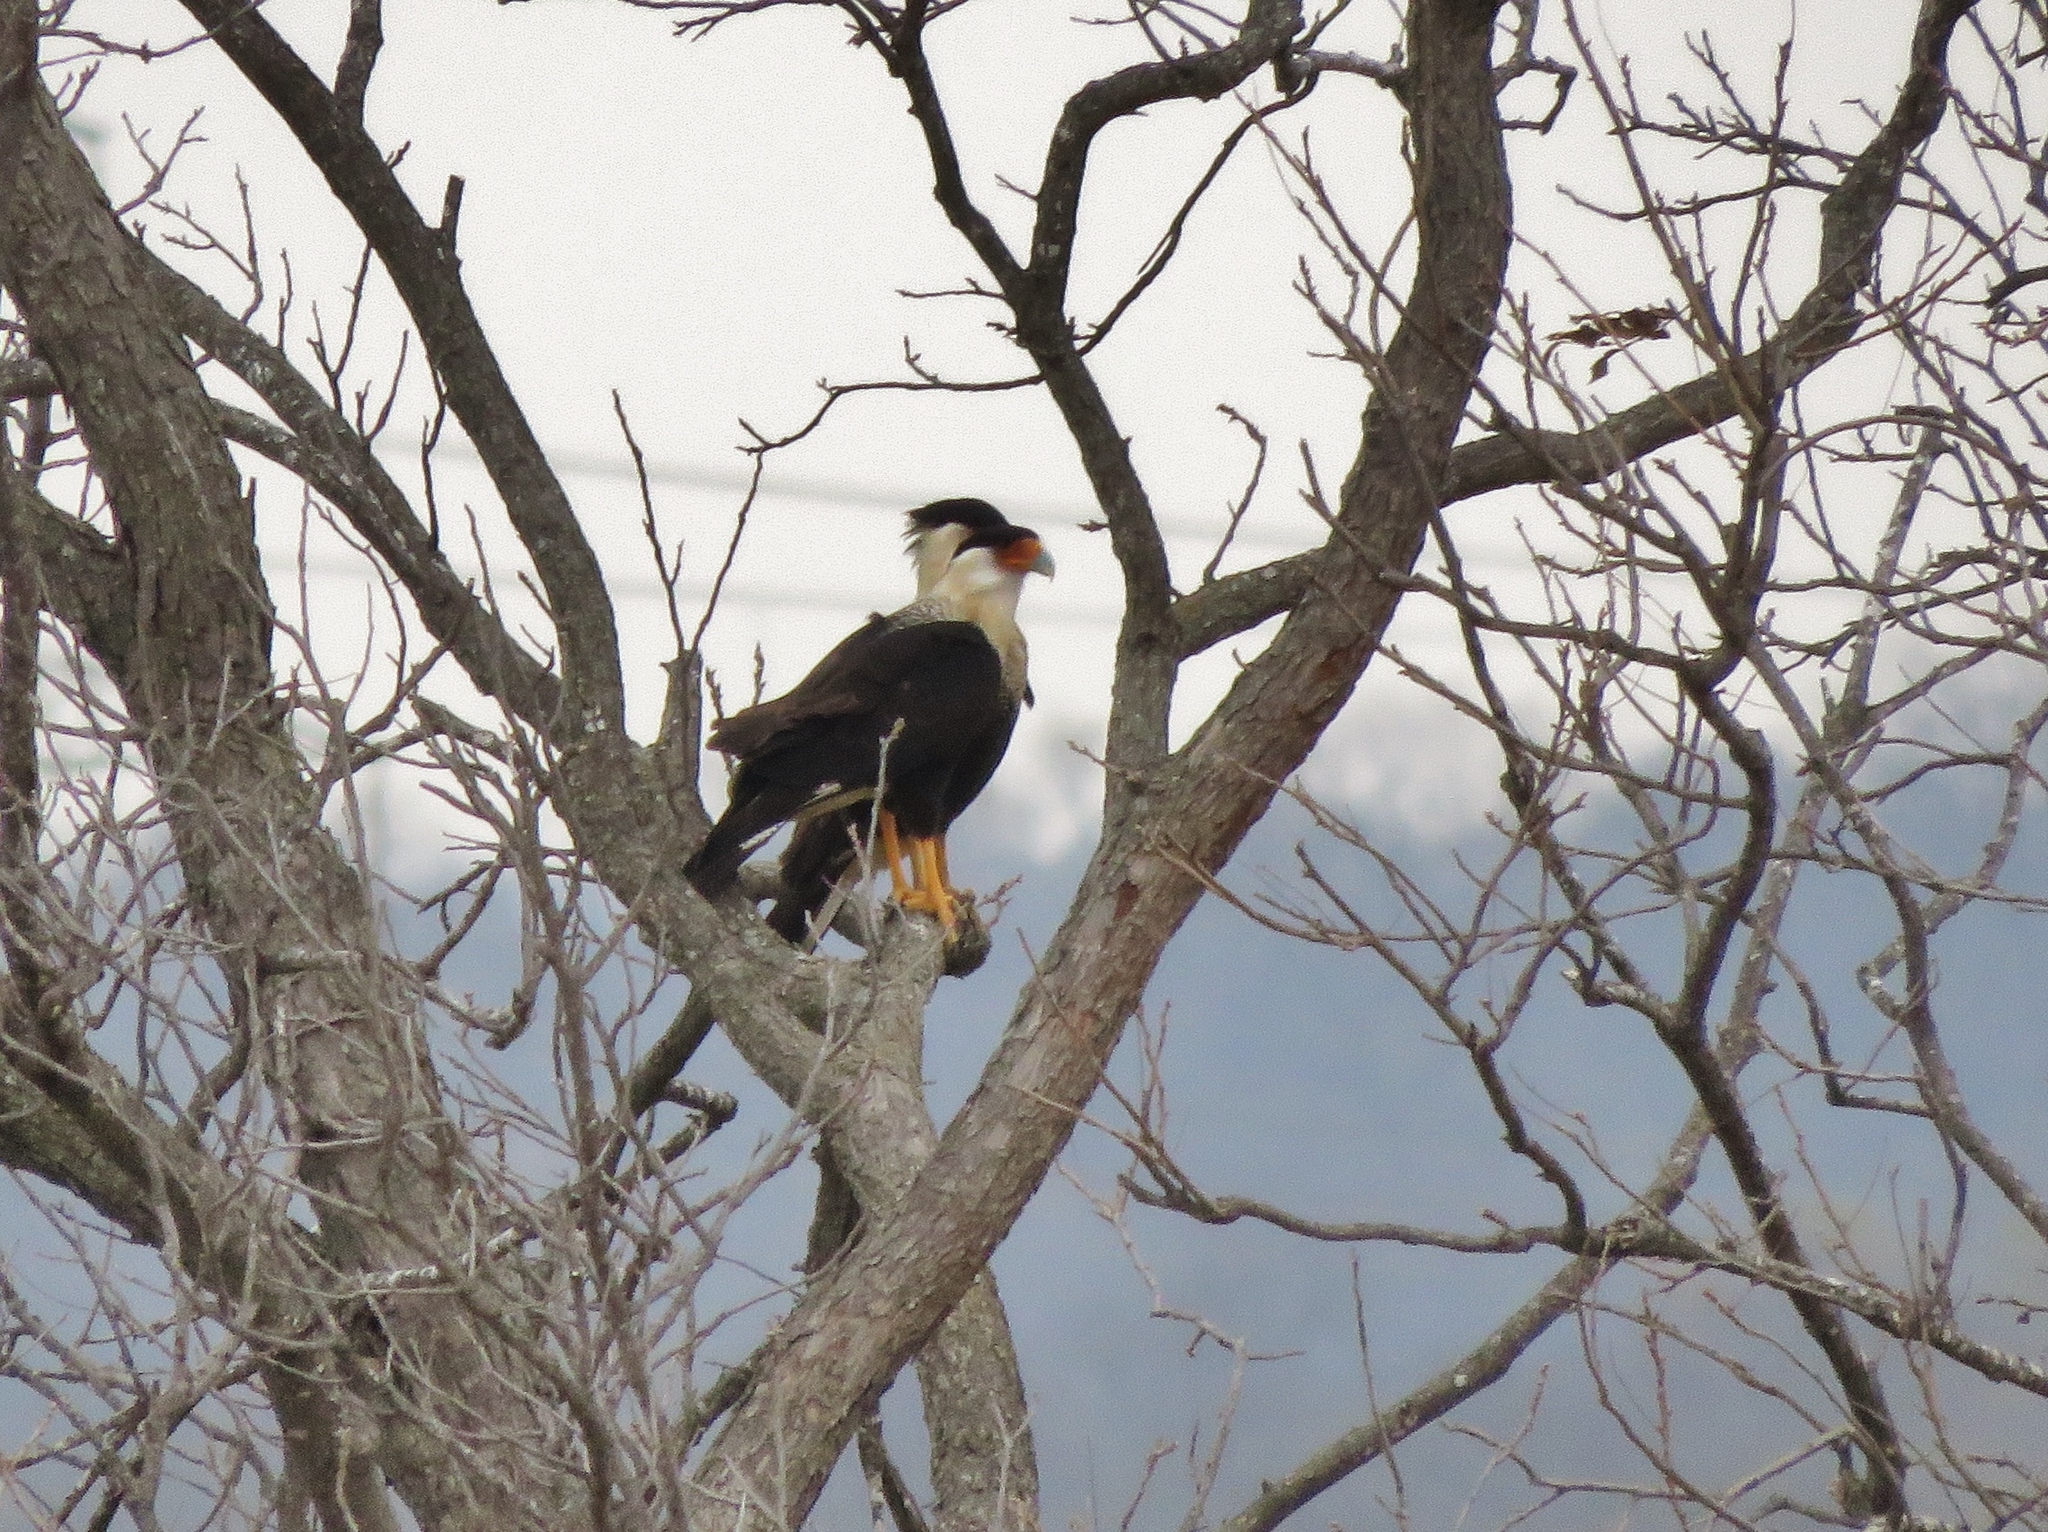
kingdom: Animalia
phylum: Chordata
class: Aves
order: Falconiformes
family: Falconidae
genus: Caracara
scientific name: Caracara plancus
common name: Southern caracara
